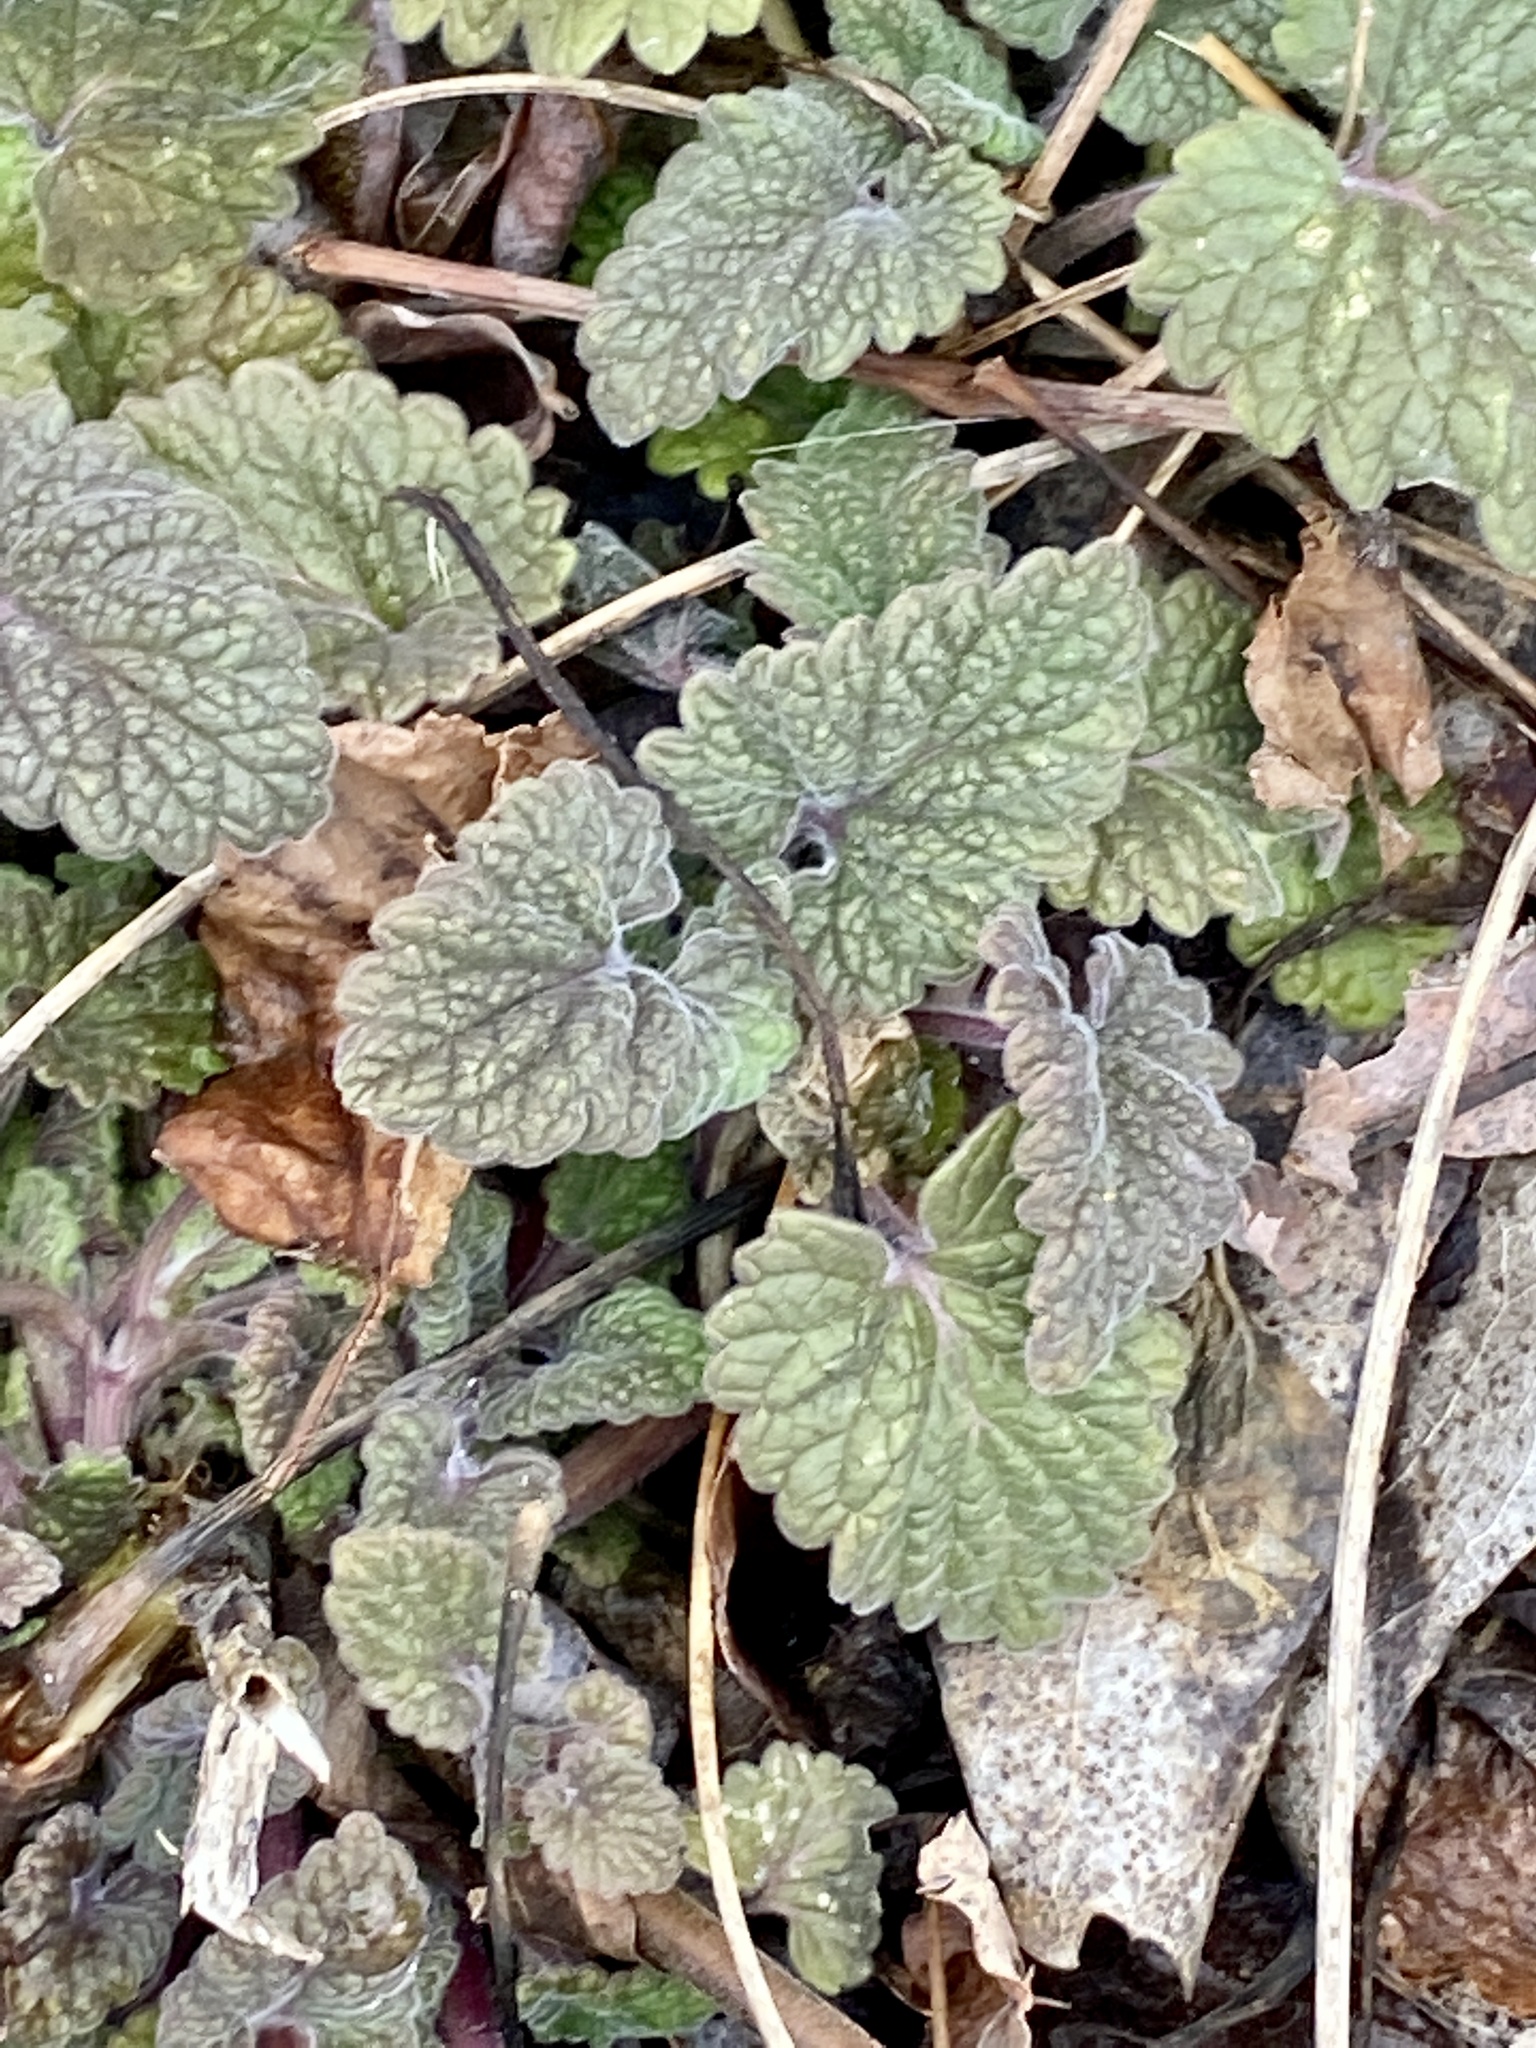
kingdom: Plantae
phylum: Tracheophyta
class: Magnoliopsida
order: Lamiales
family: Lamiaceae
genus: Nepeta
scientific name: Nepeta cataria
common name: Catnip
